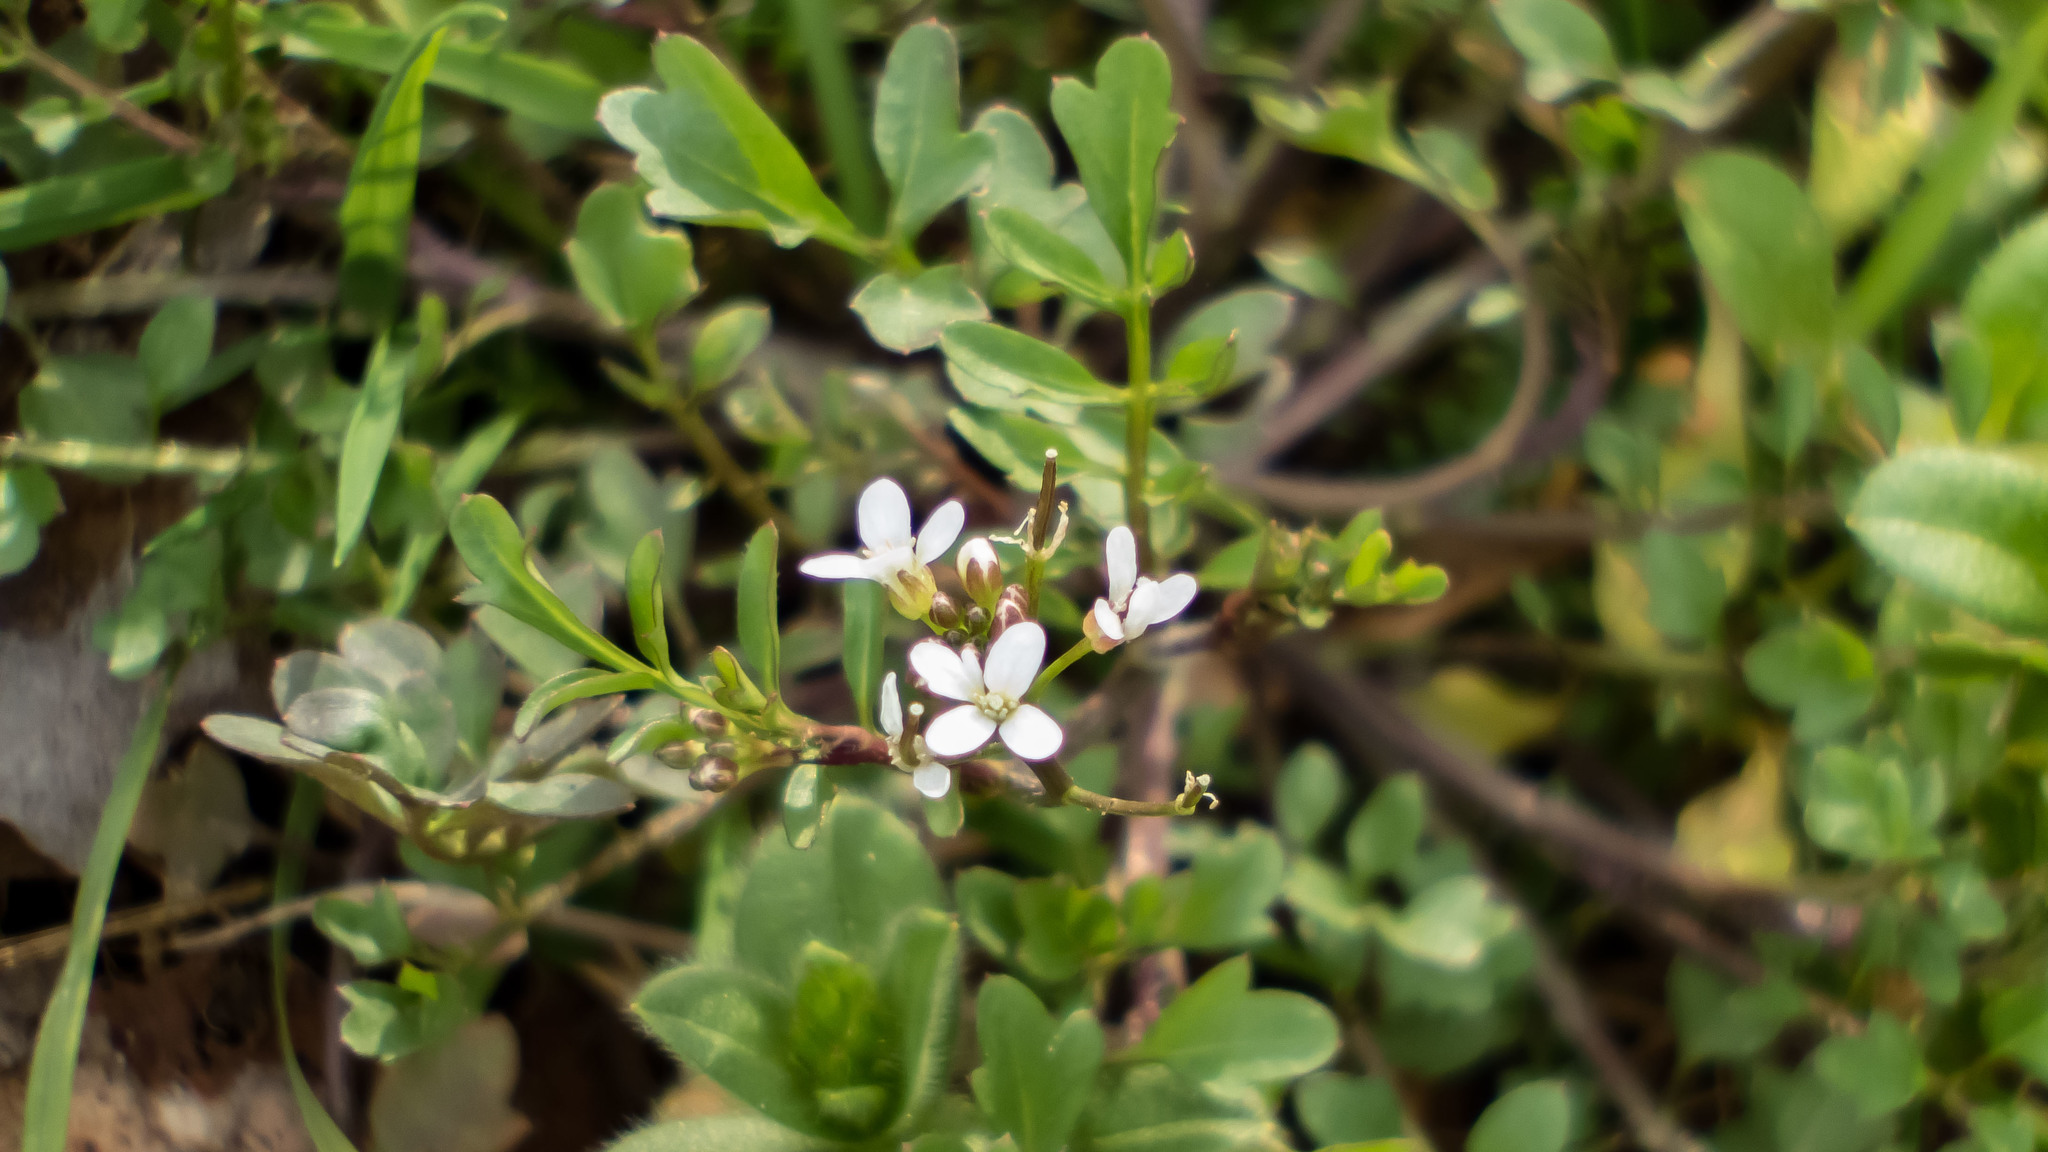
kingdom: Plantae
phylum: Tracheophyta
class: Magnoliopsida
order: Brassicales
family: Brassicaceae
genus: Cardamine
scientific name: Cardamine occulta
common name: Asian wavy bittercress
